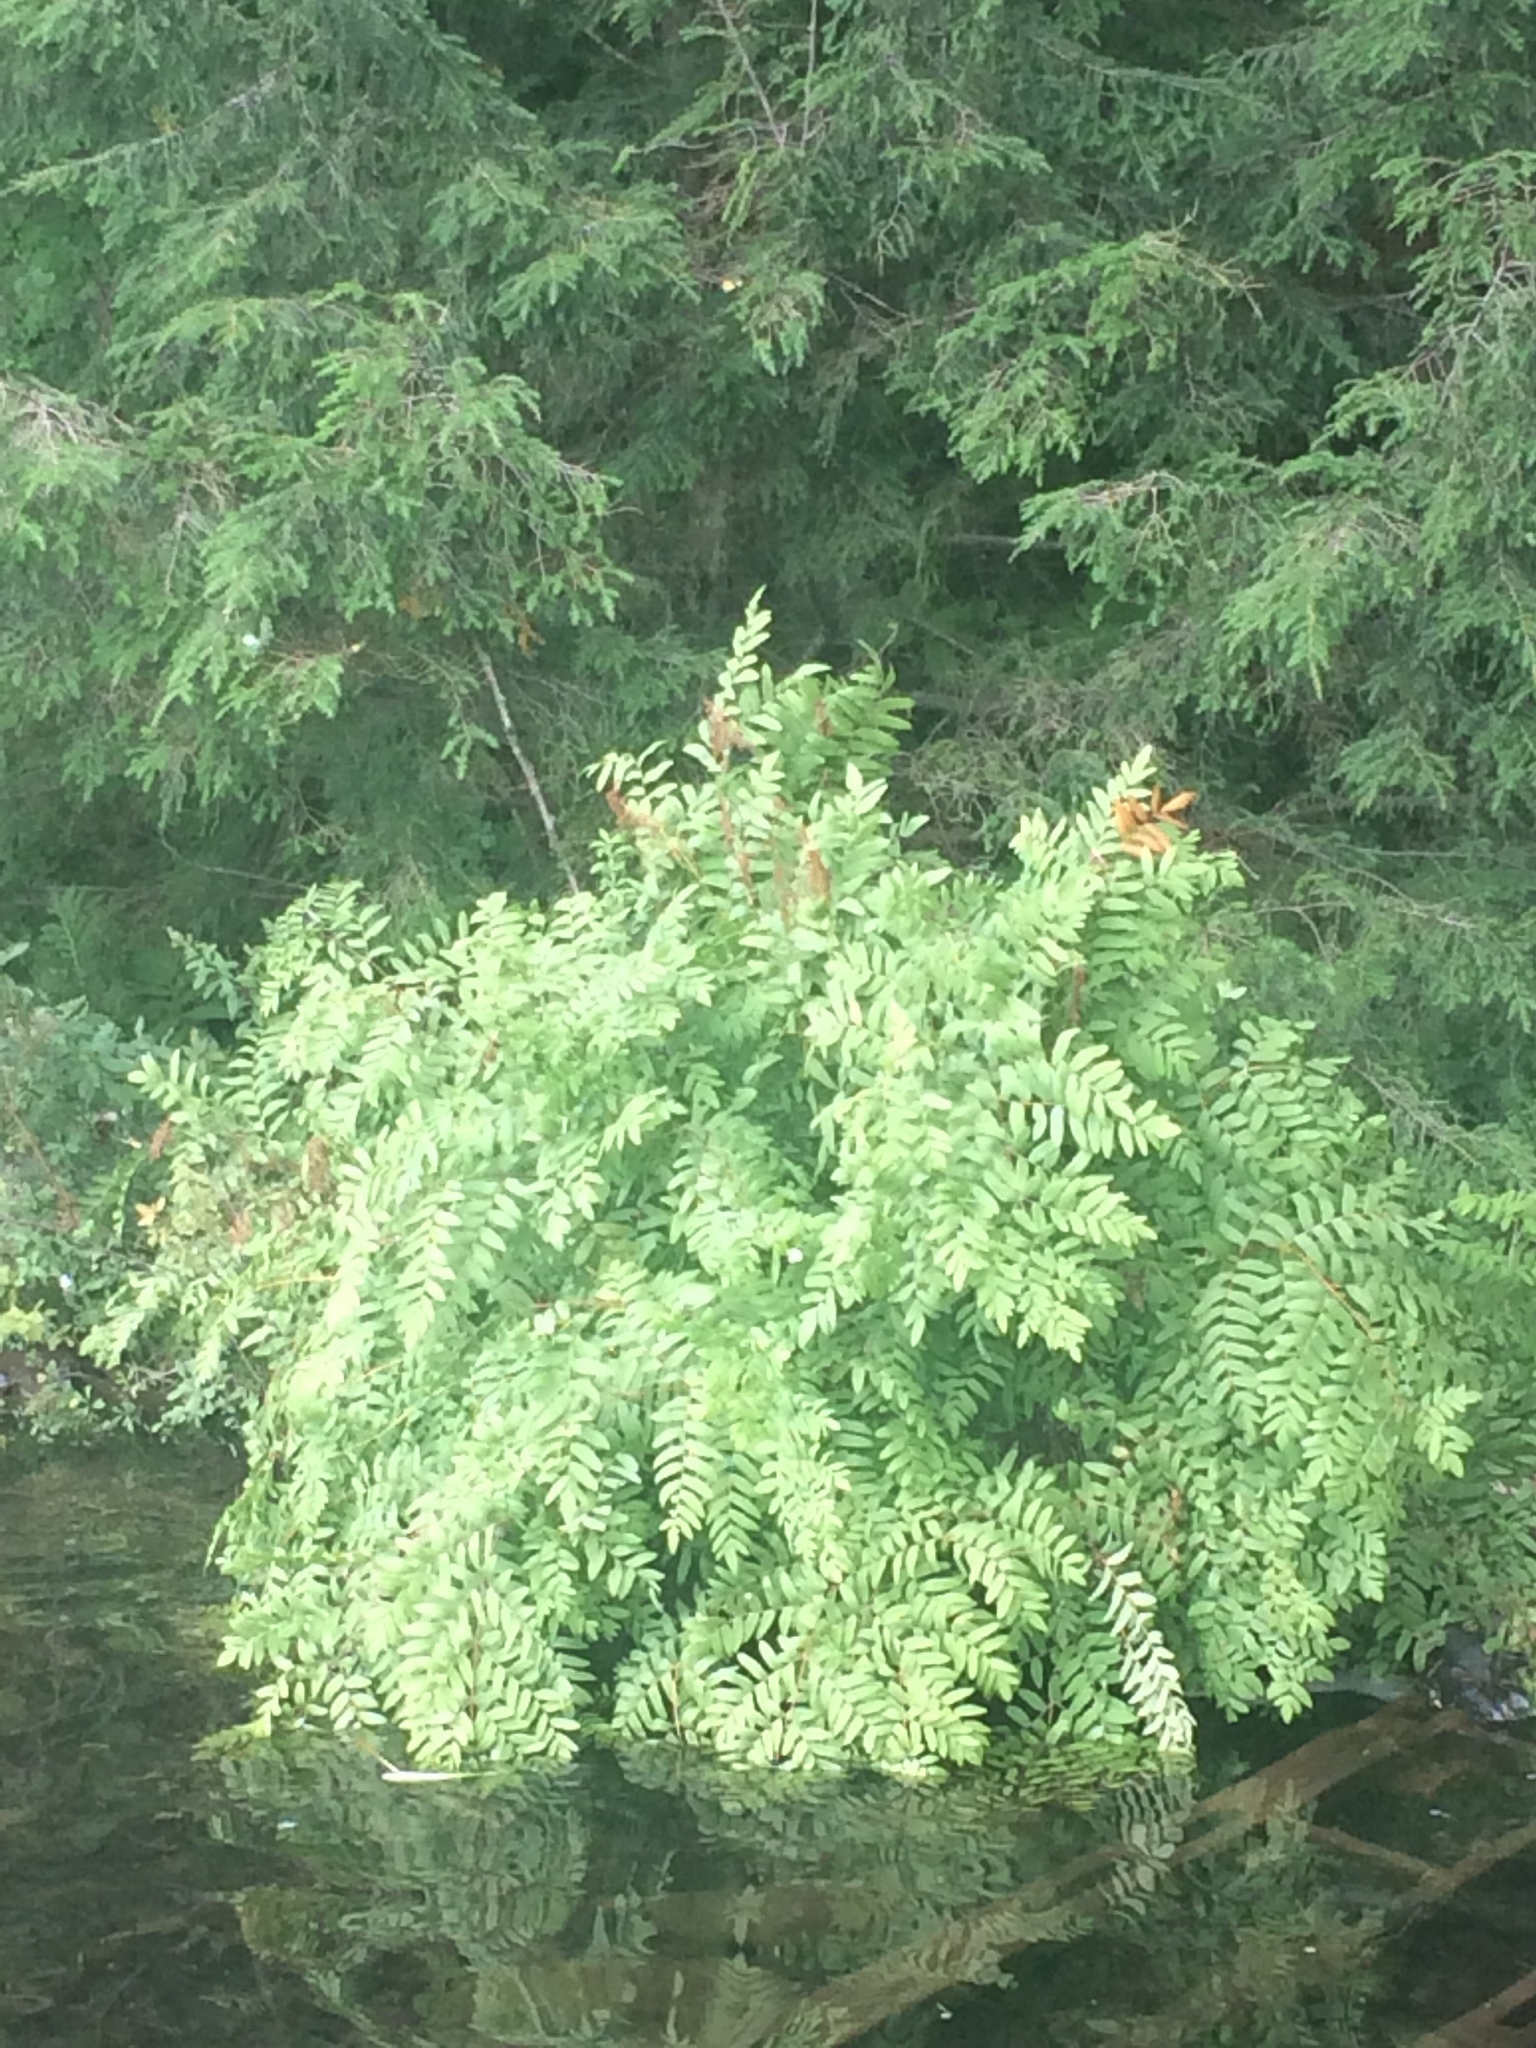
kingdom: Plantae
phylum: Tracheophyta
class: Polypodiopsida
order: Osmundales
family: Osmundaceae
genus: Osmunda
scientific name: Osmunda spectabilis
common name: American royal fern
